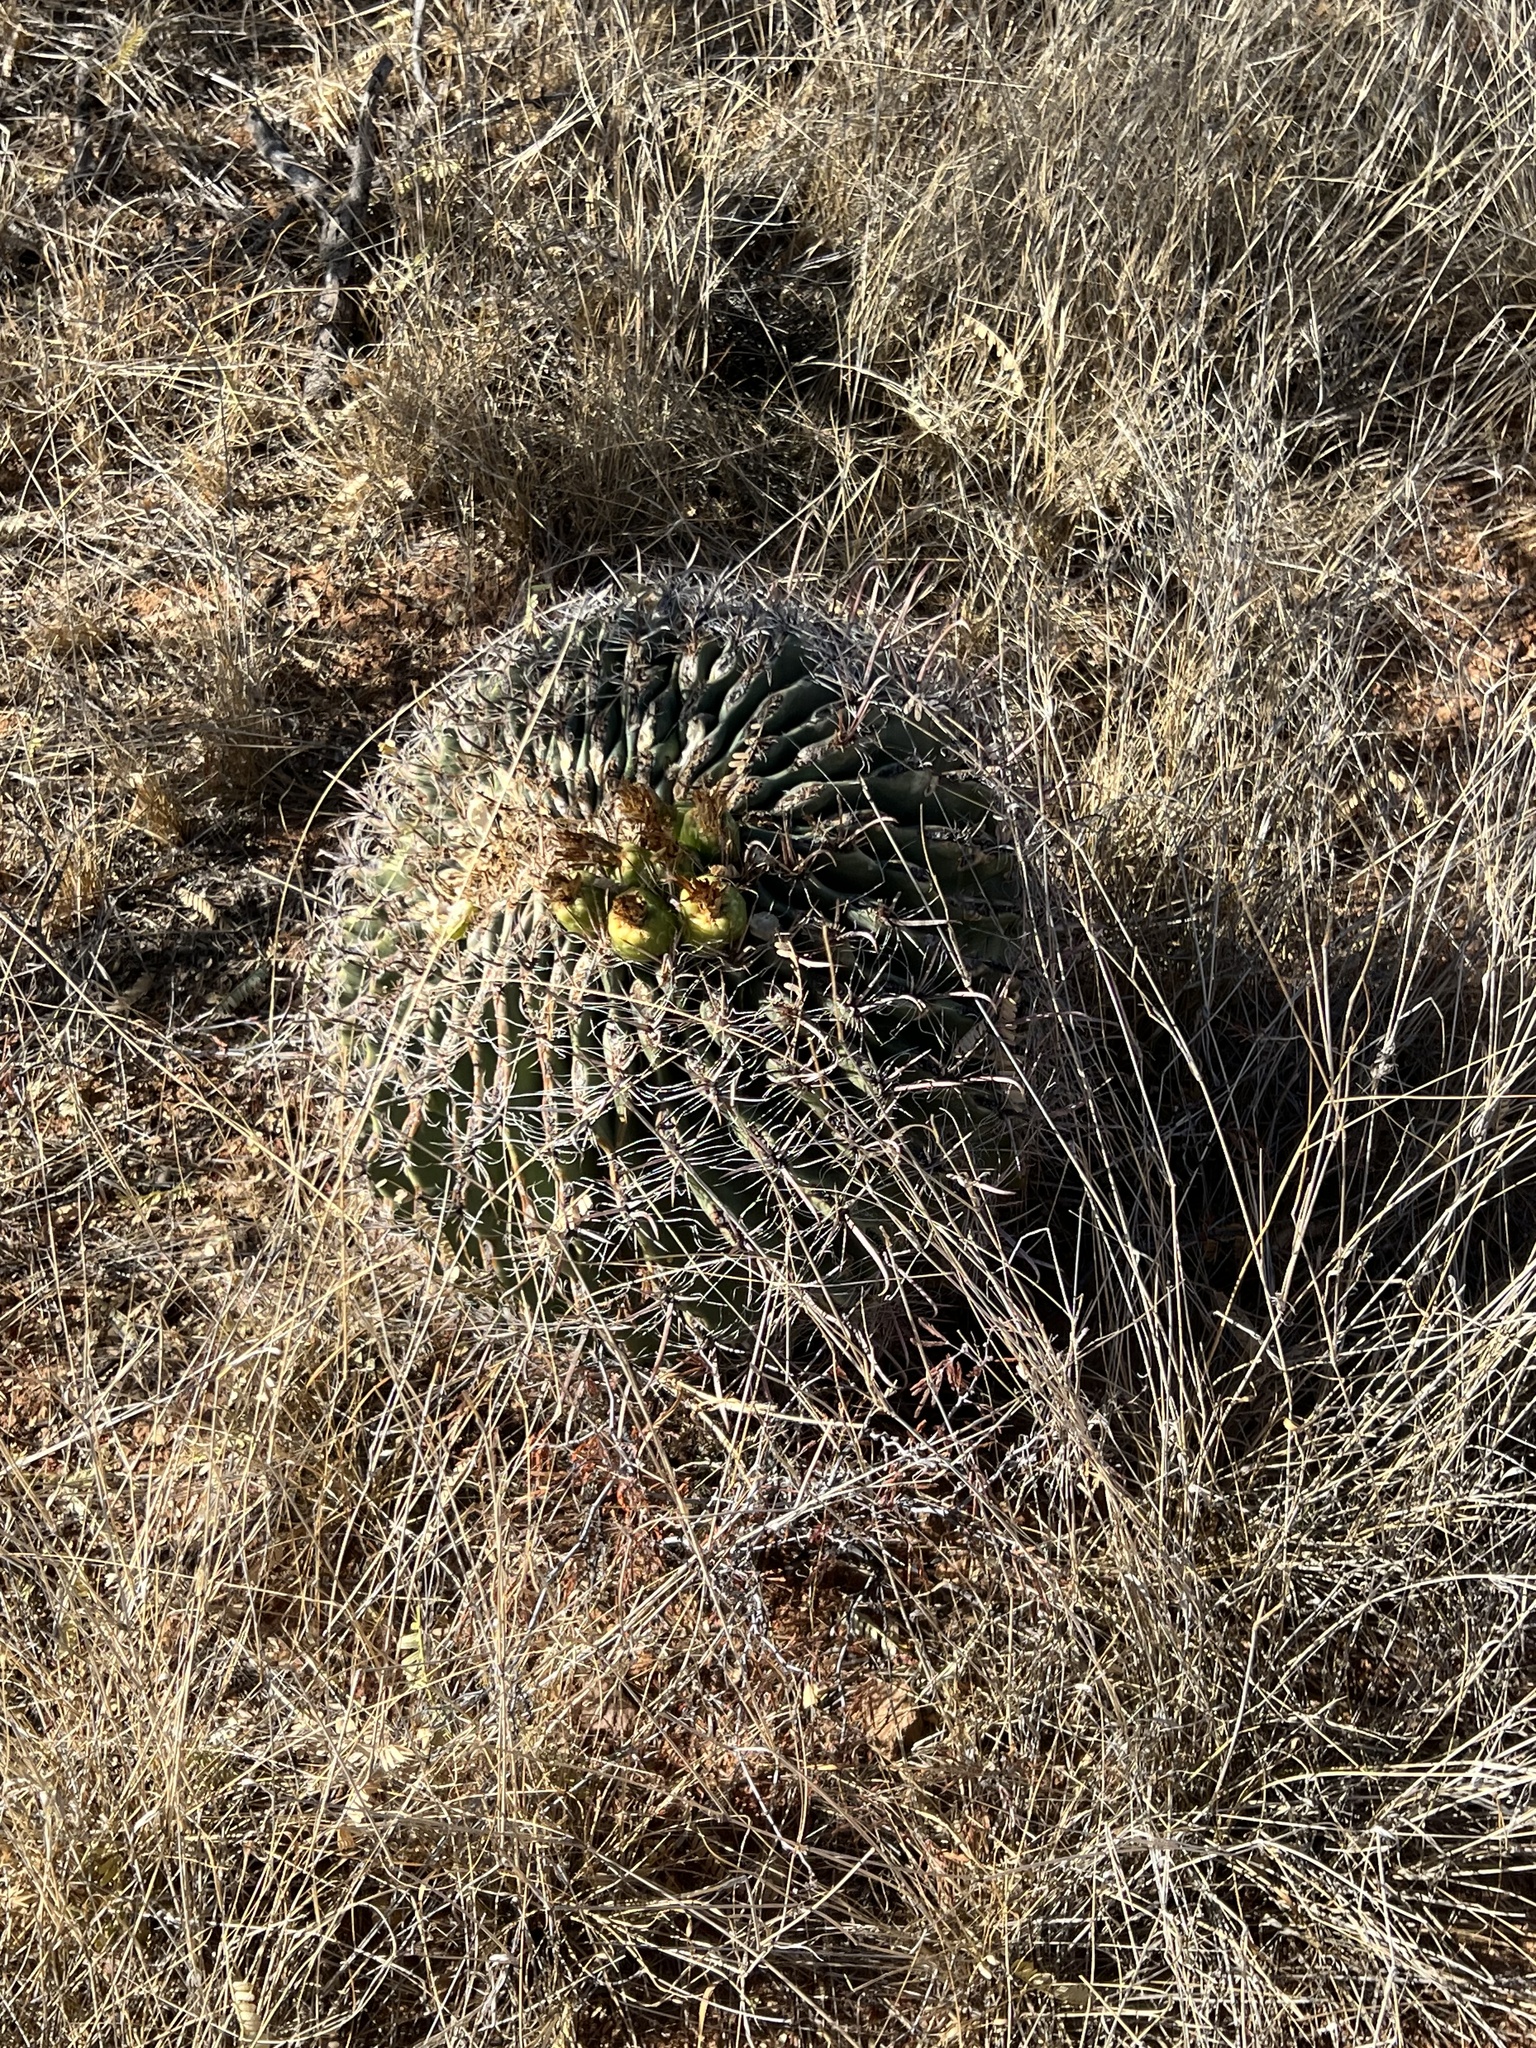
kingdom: Plantae
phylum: Tracheophyta
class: Magnoliopsida
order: Caryophyllales
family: Cactaceae
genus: Ferocactus
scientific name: Ferocactus wislizeni
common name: Candy barrel cactus
